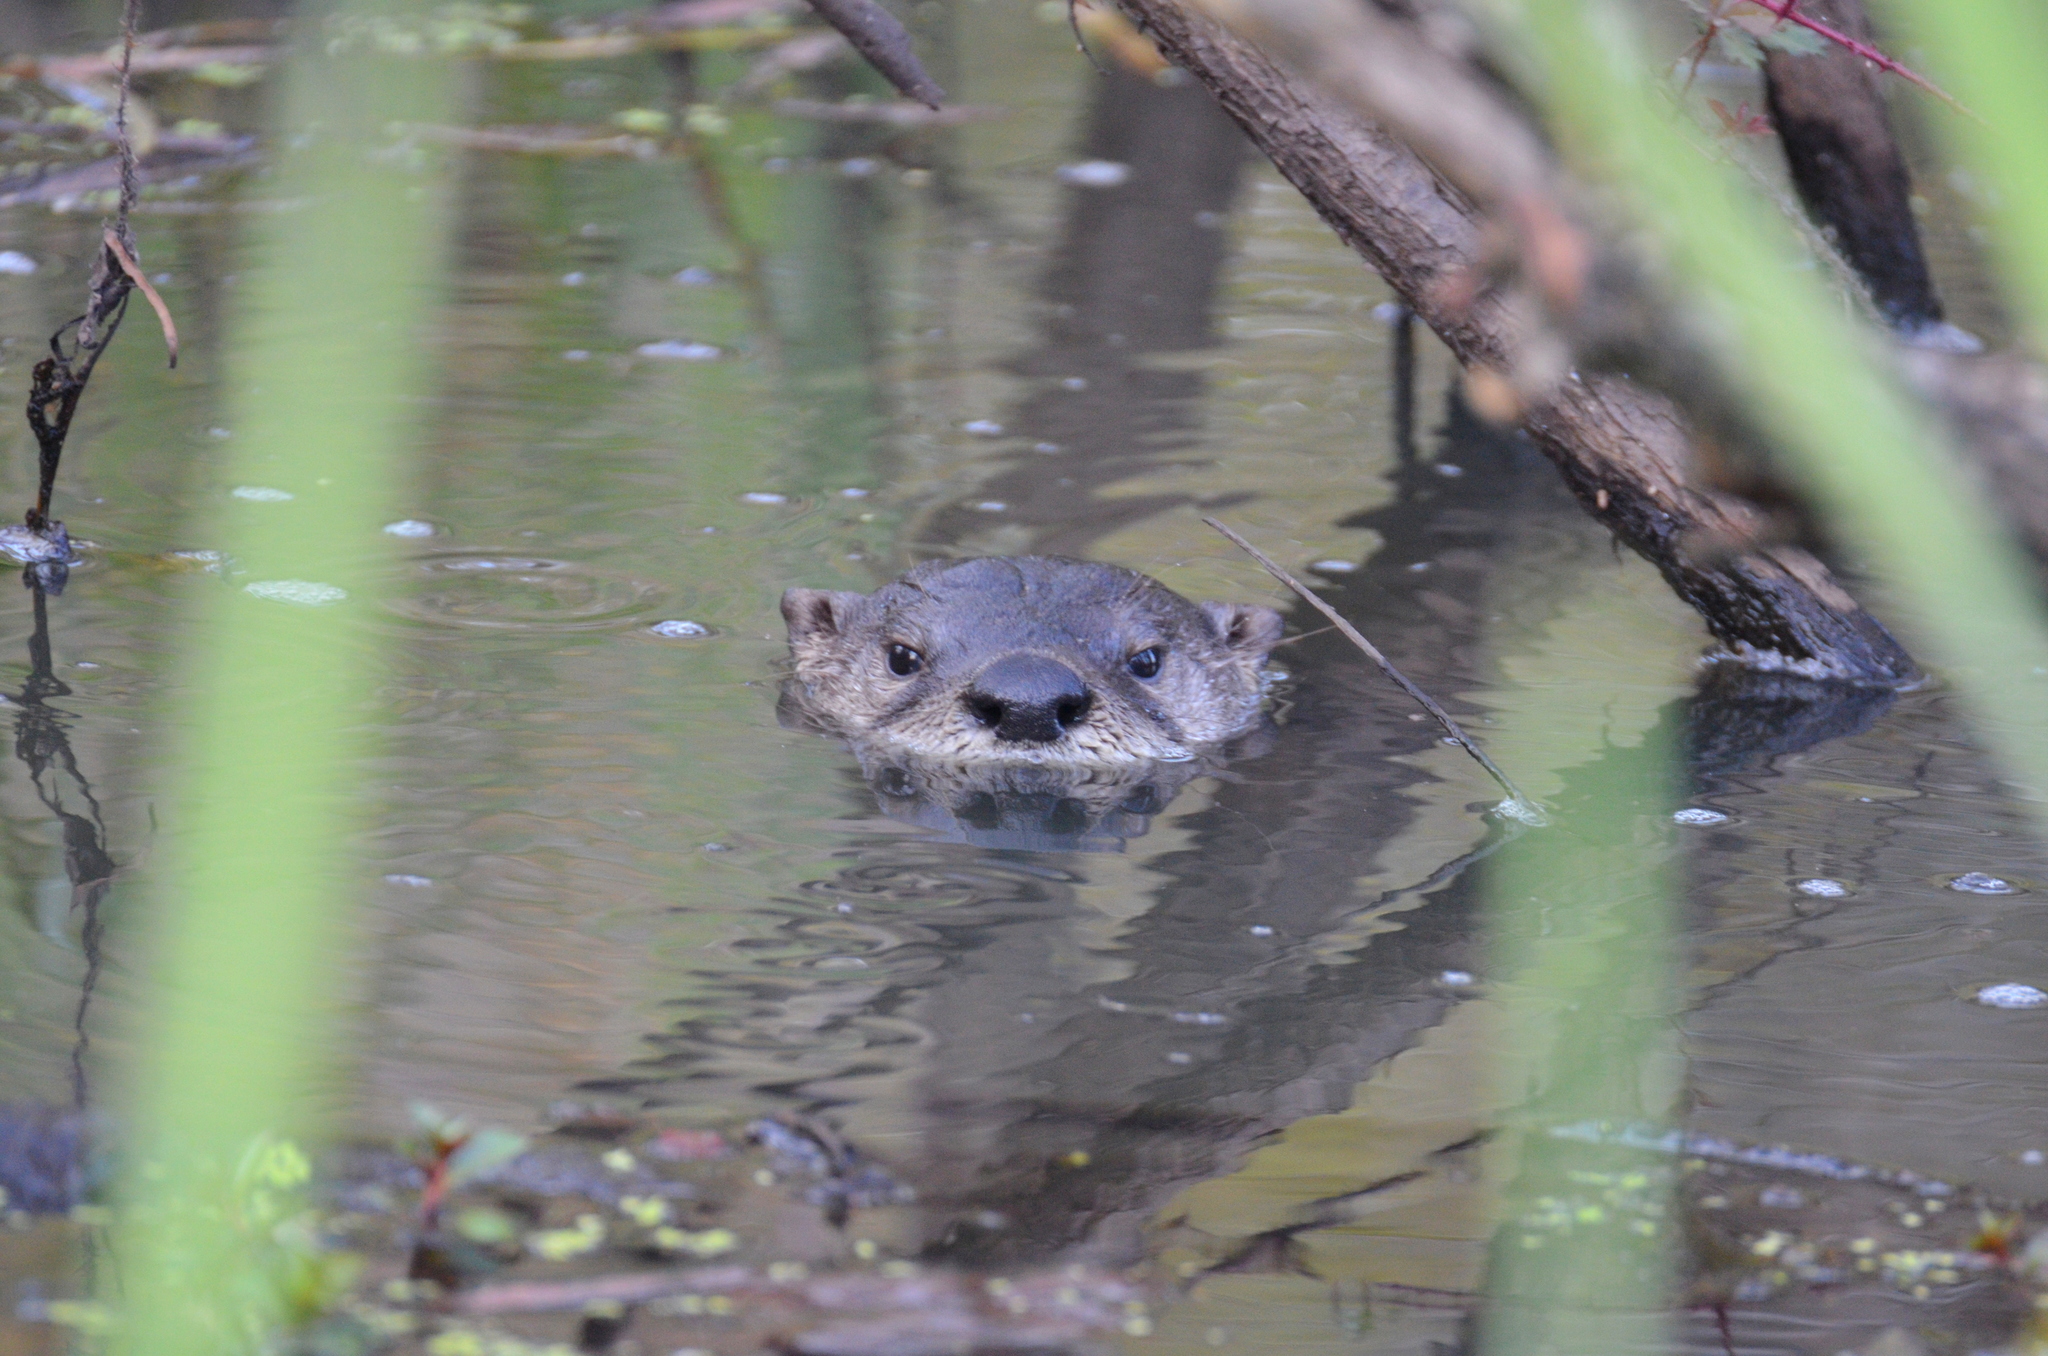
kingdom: Animalia
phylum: Chordata
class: Mammalia
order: Carnivora
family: Mustelidae
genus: Lontra
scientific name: Lontra canadensis
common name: North american river otter
